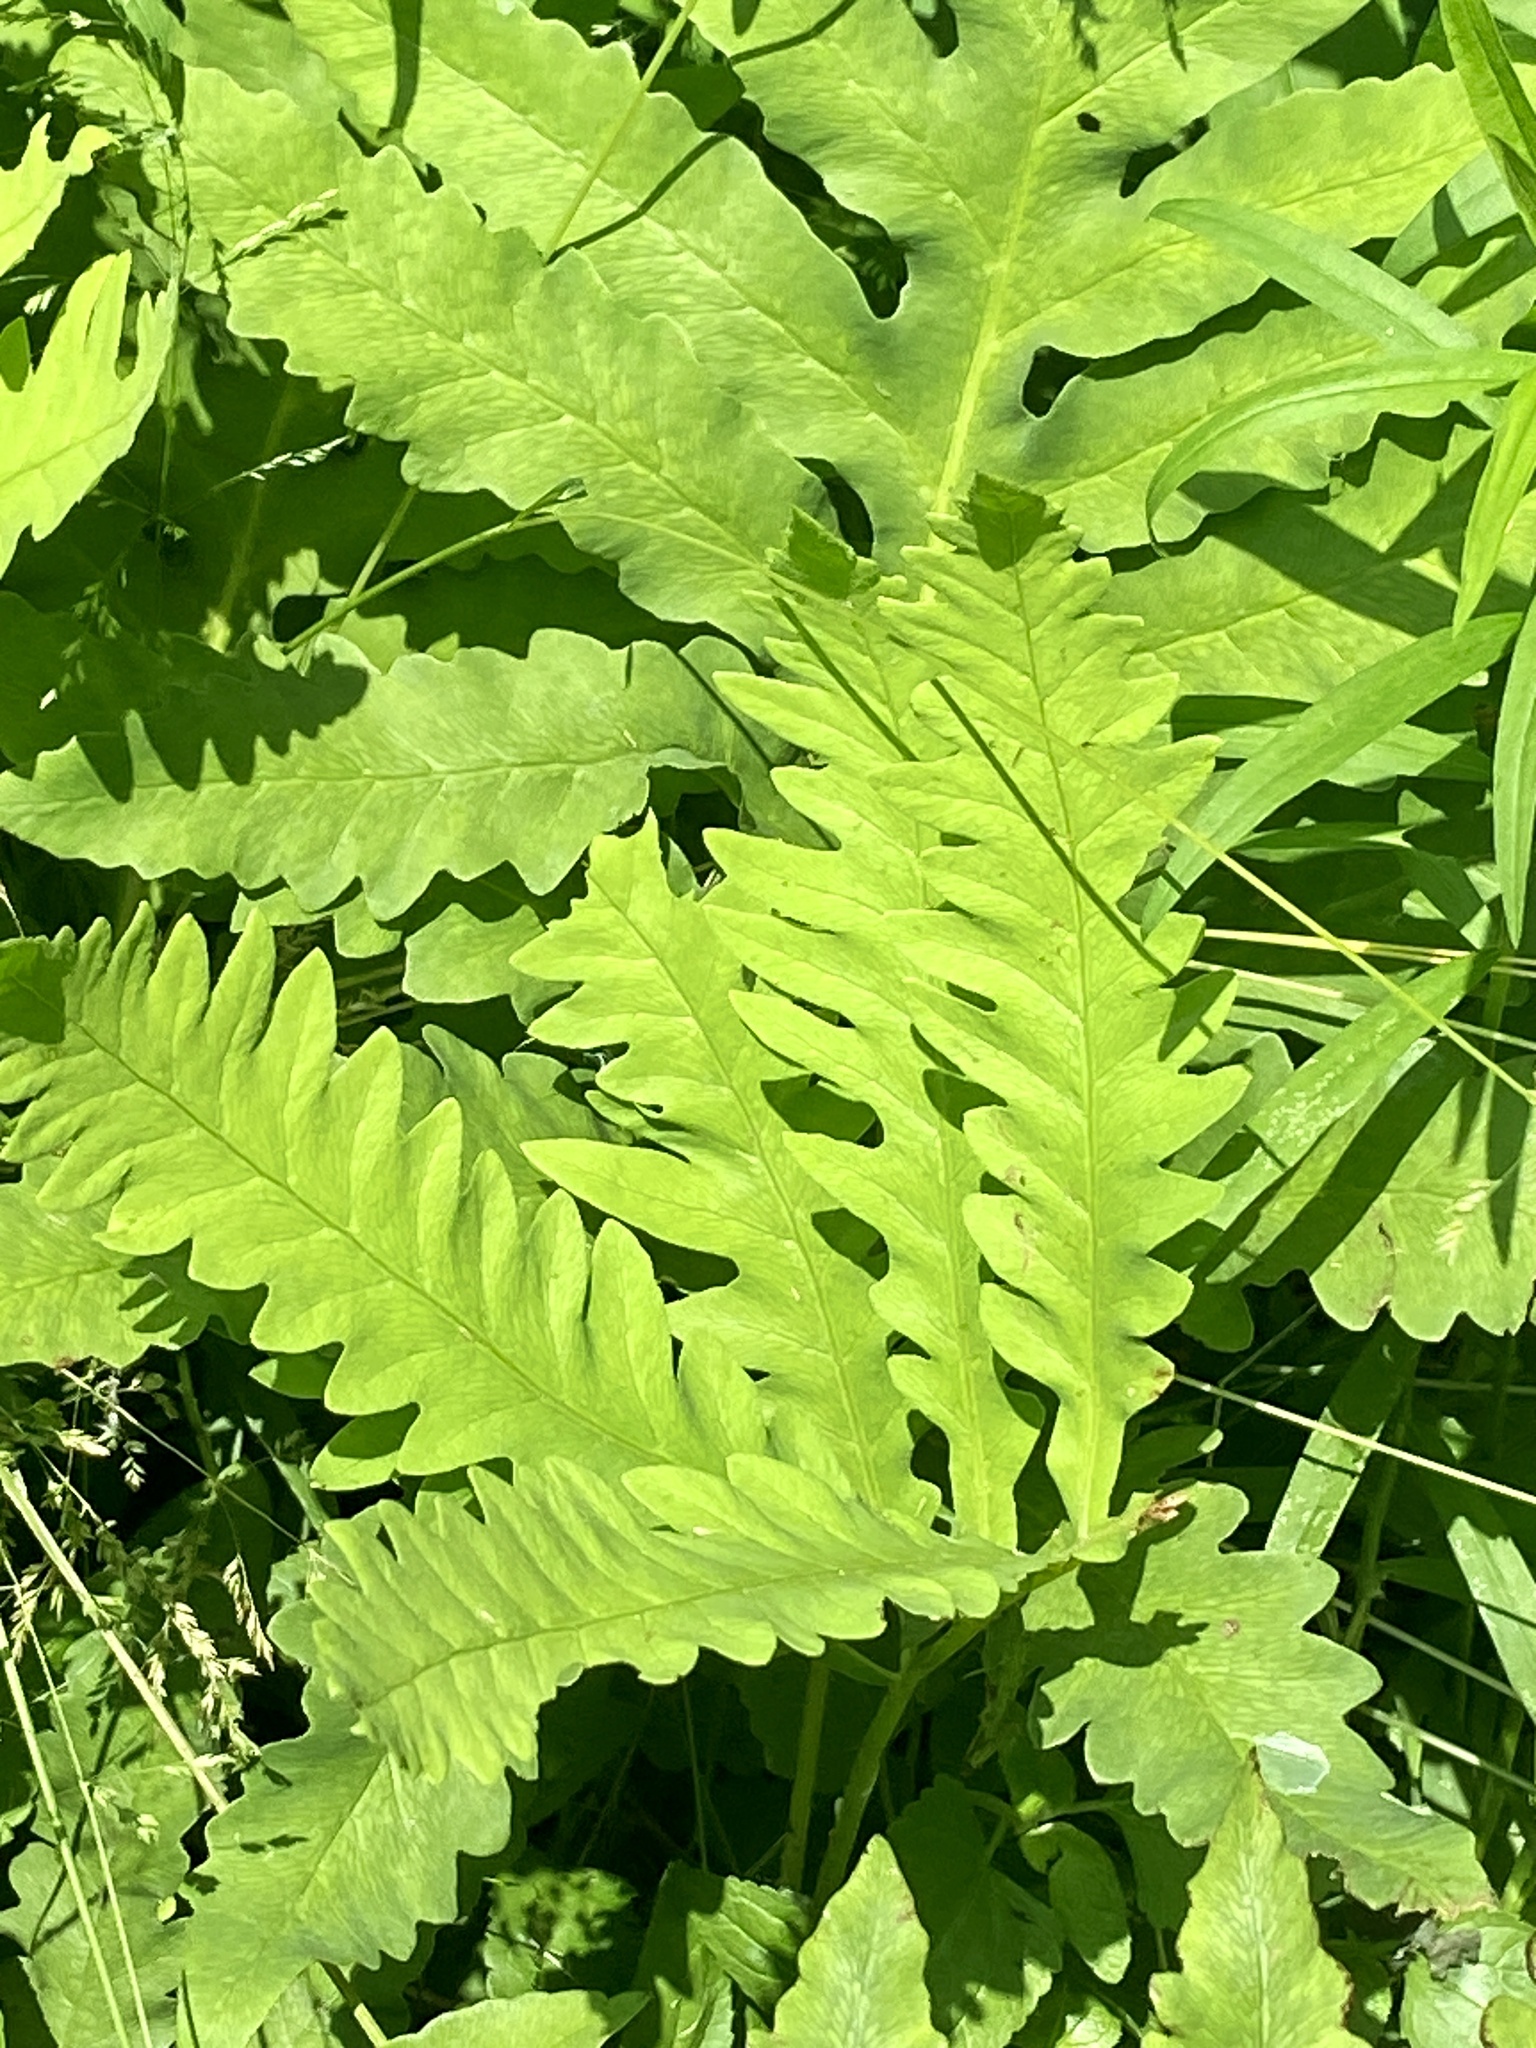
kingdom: Plantae
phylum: Tracheophyta
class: Polypodiopsida
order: Polypodiales
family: Onocleaceae
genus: Onoclea
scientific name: Onoclea sensibilis
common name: Sensitive fern
